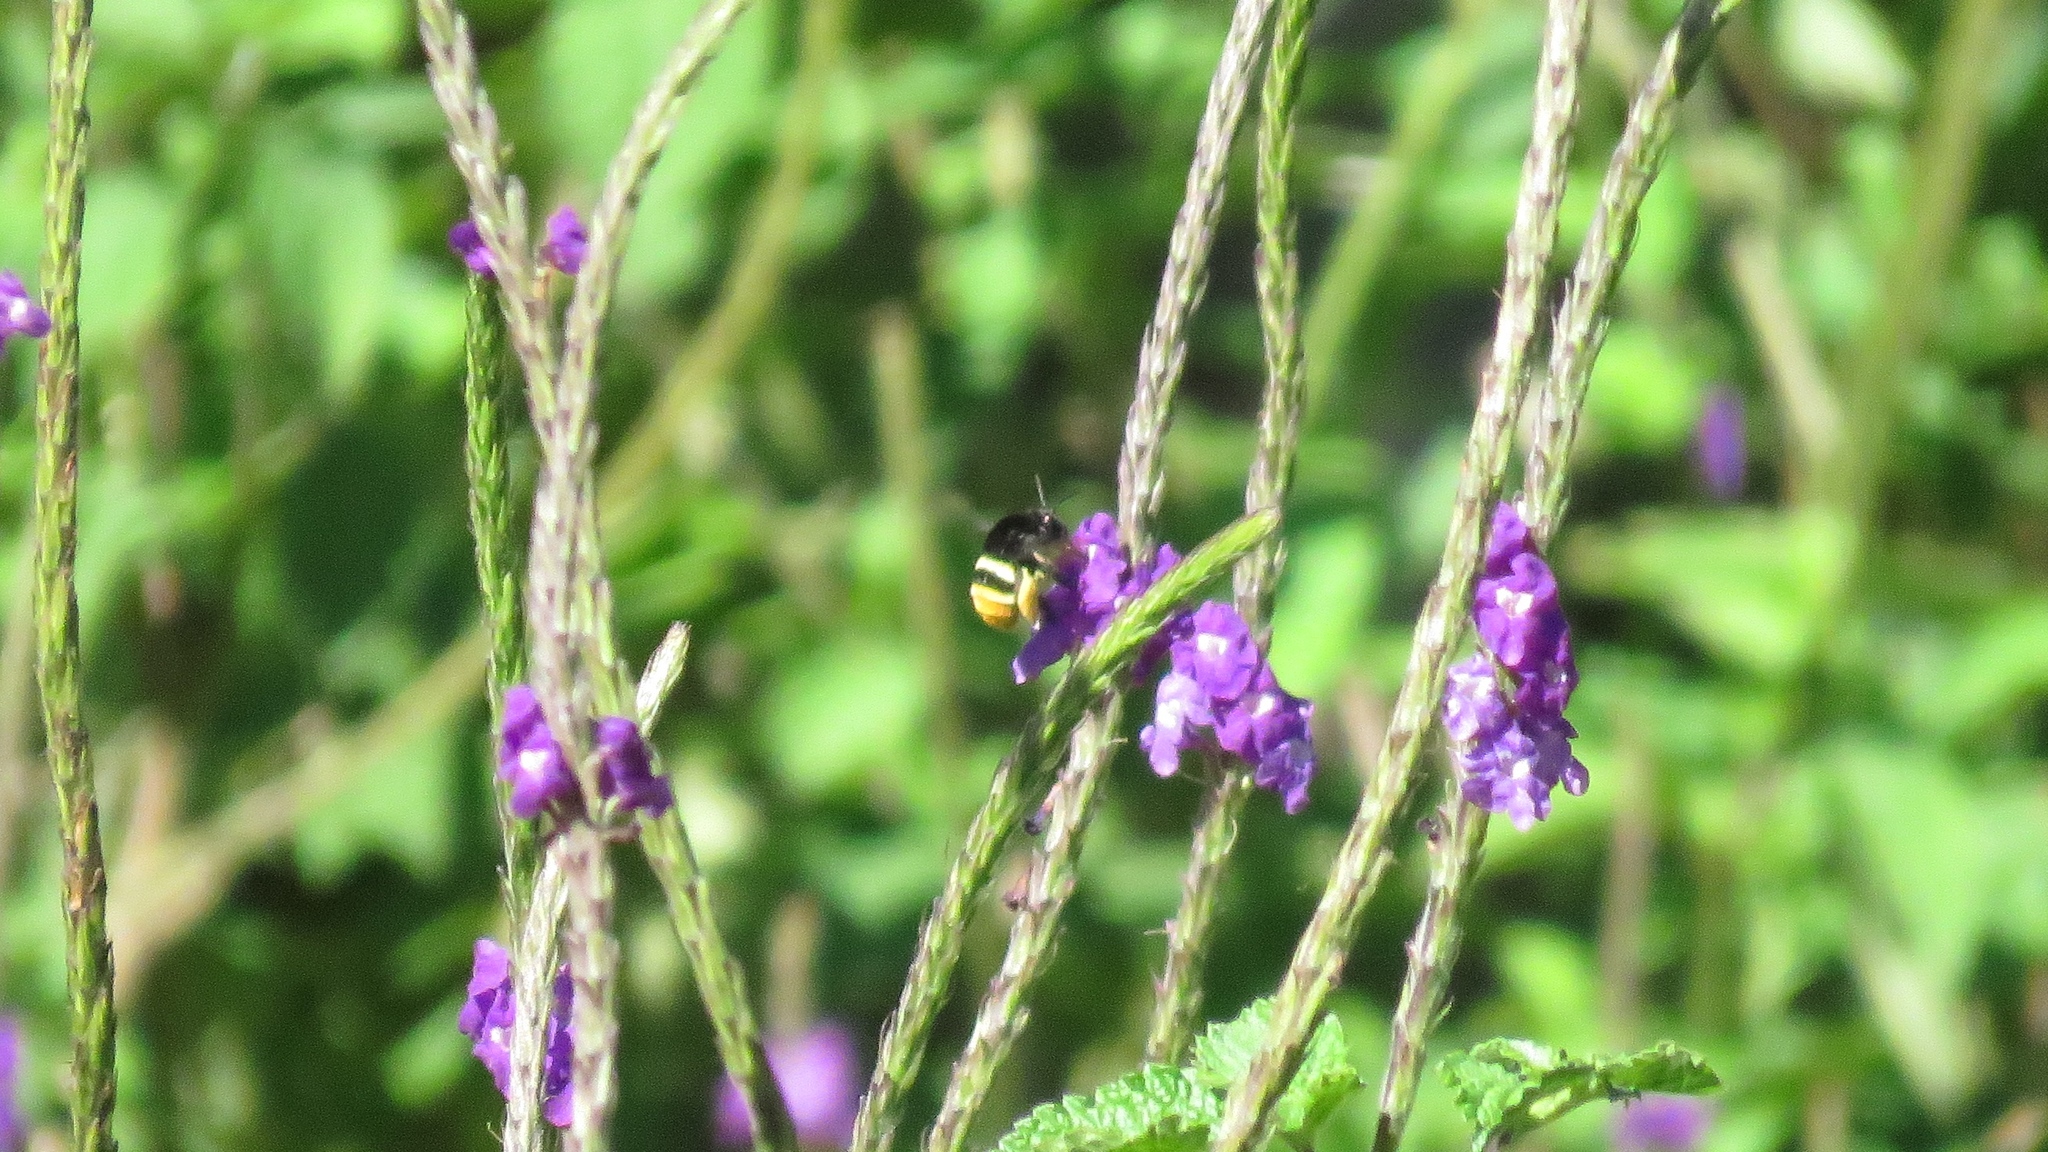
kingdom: Animalia
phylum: Arthropoda
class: Insecta
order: Hymenoptera
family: Apidae
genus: Eulaema
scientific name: Eulaema cingulata
